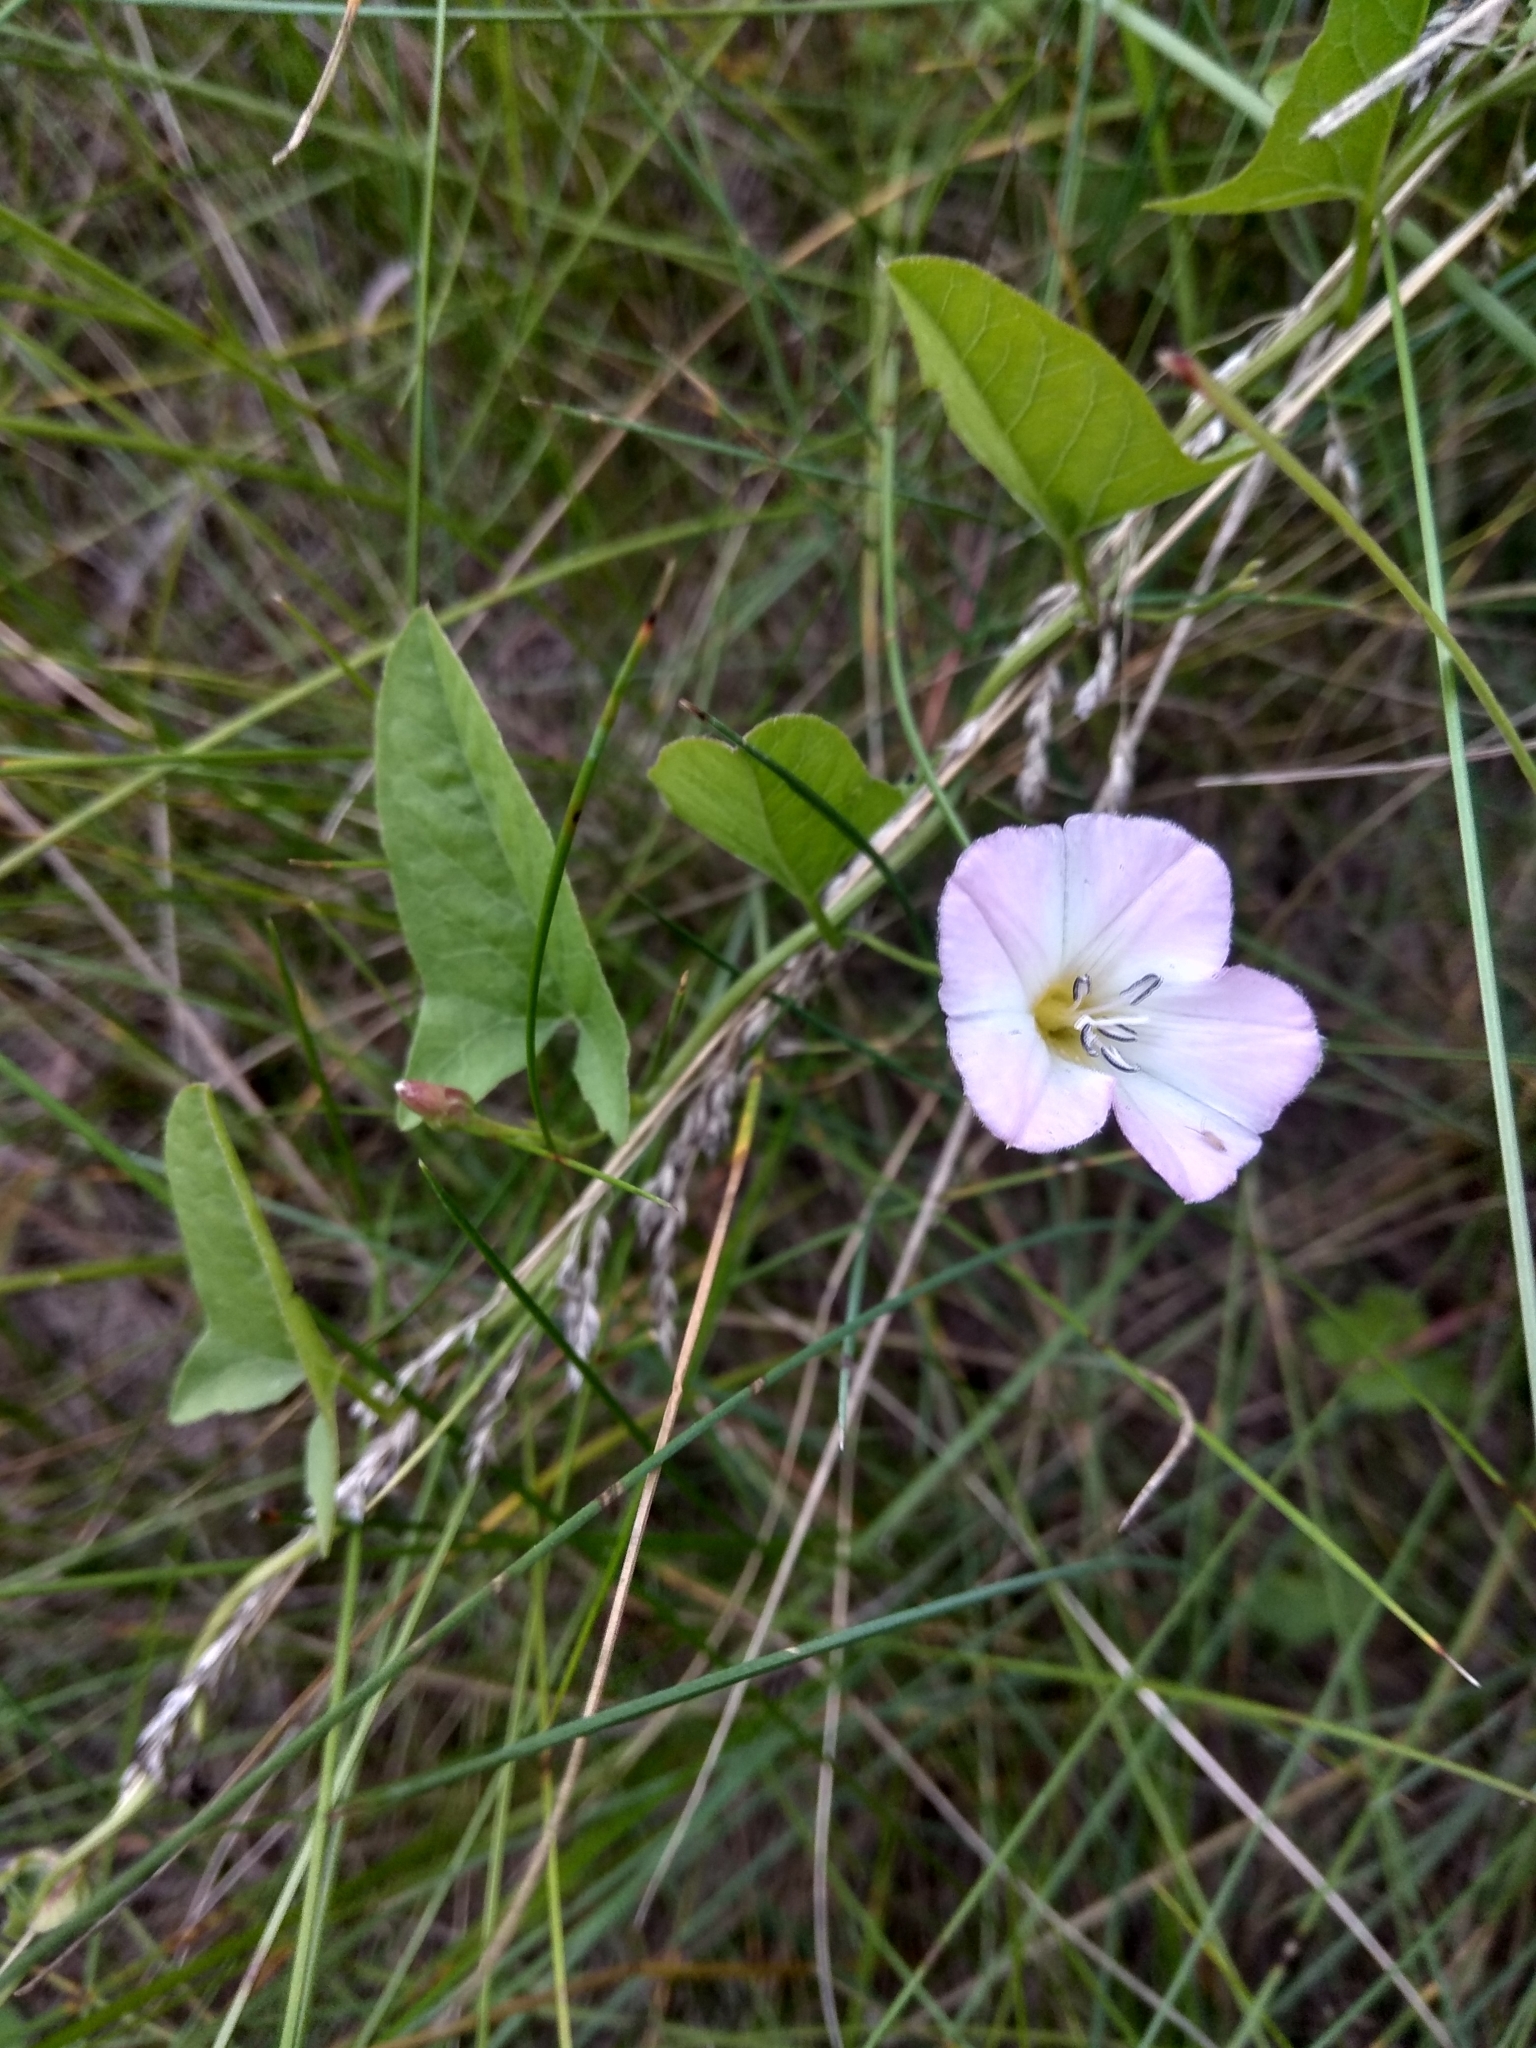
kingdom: Plantae
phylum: Tracheophyta
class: Magnoliopsida
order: Solanales
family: Convolvulaceae
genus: Convolvulus
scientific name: Convolvulus arvensis
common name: Field bindweed
